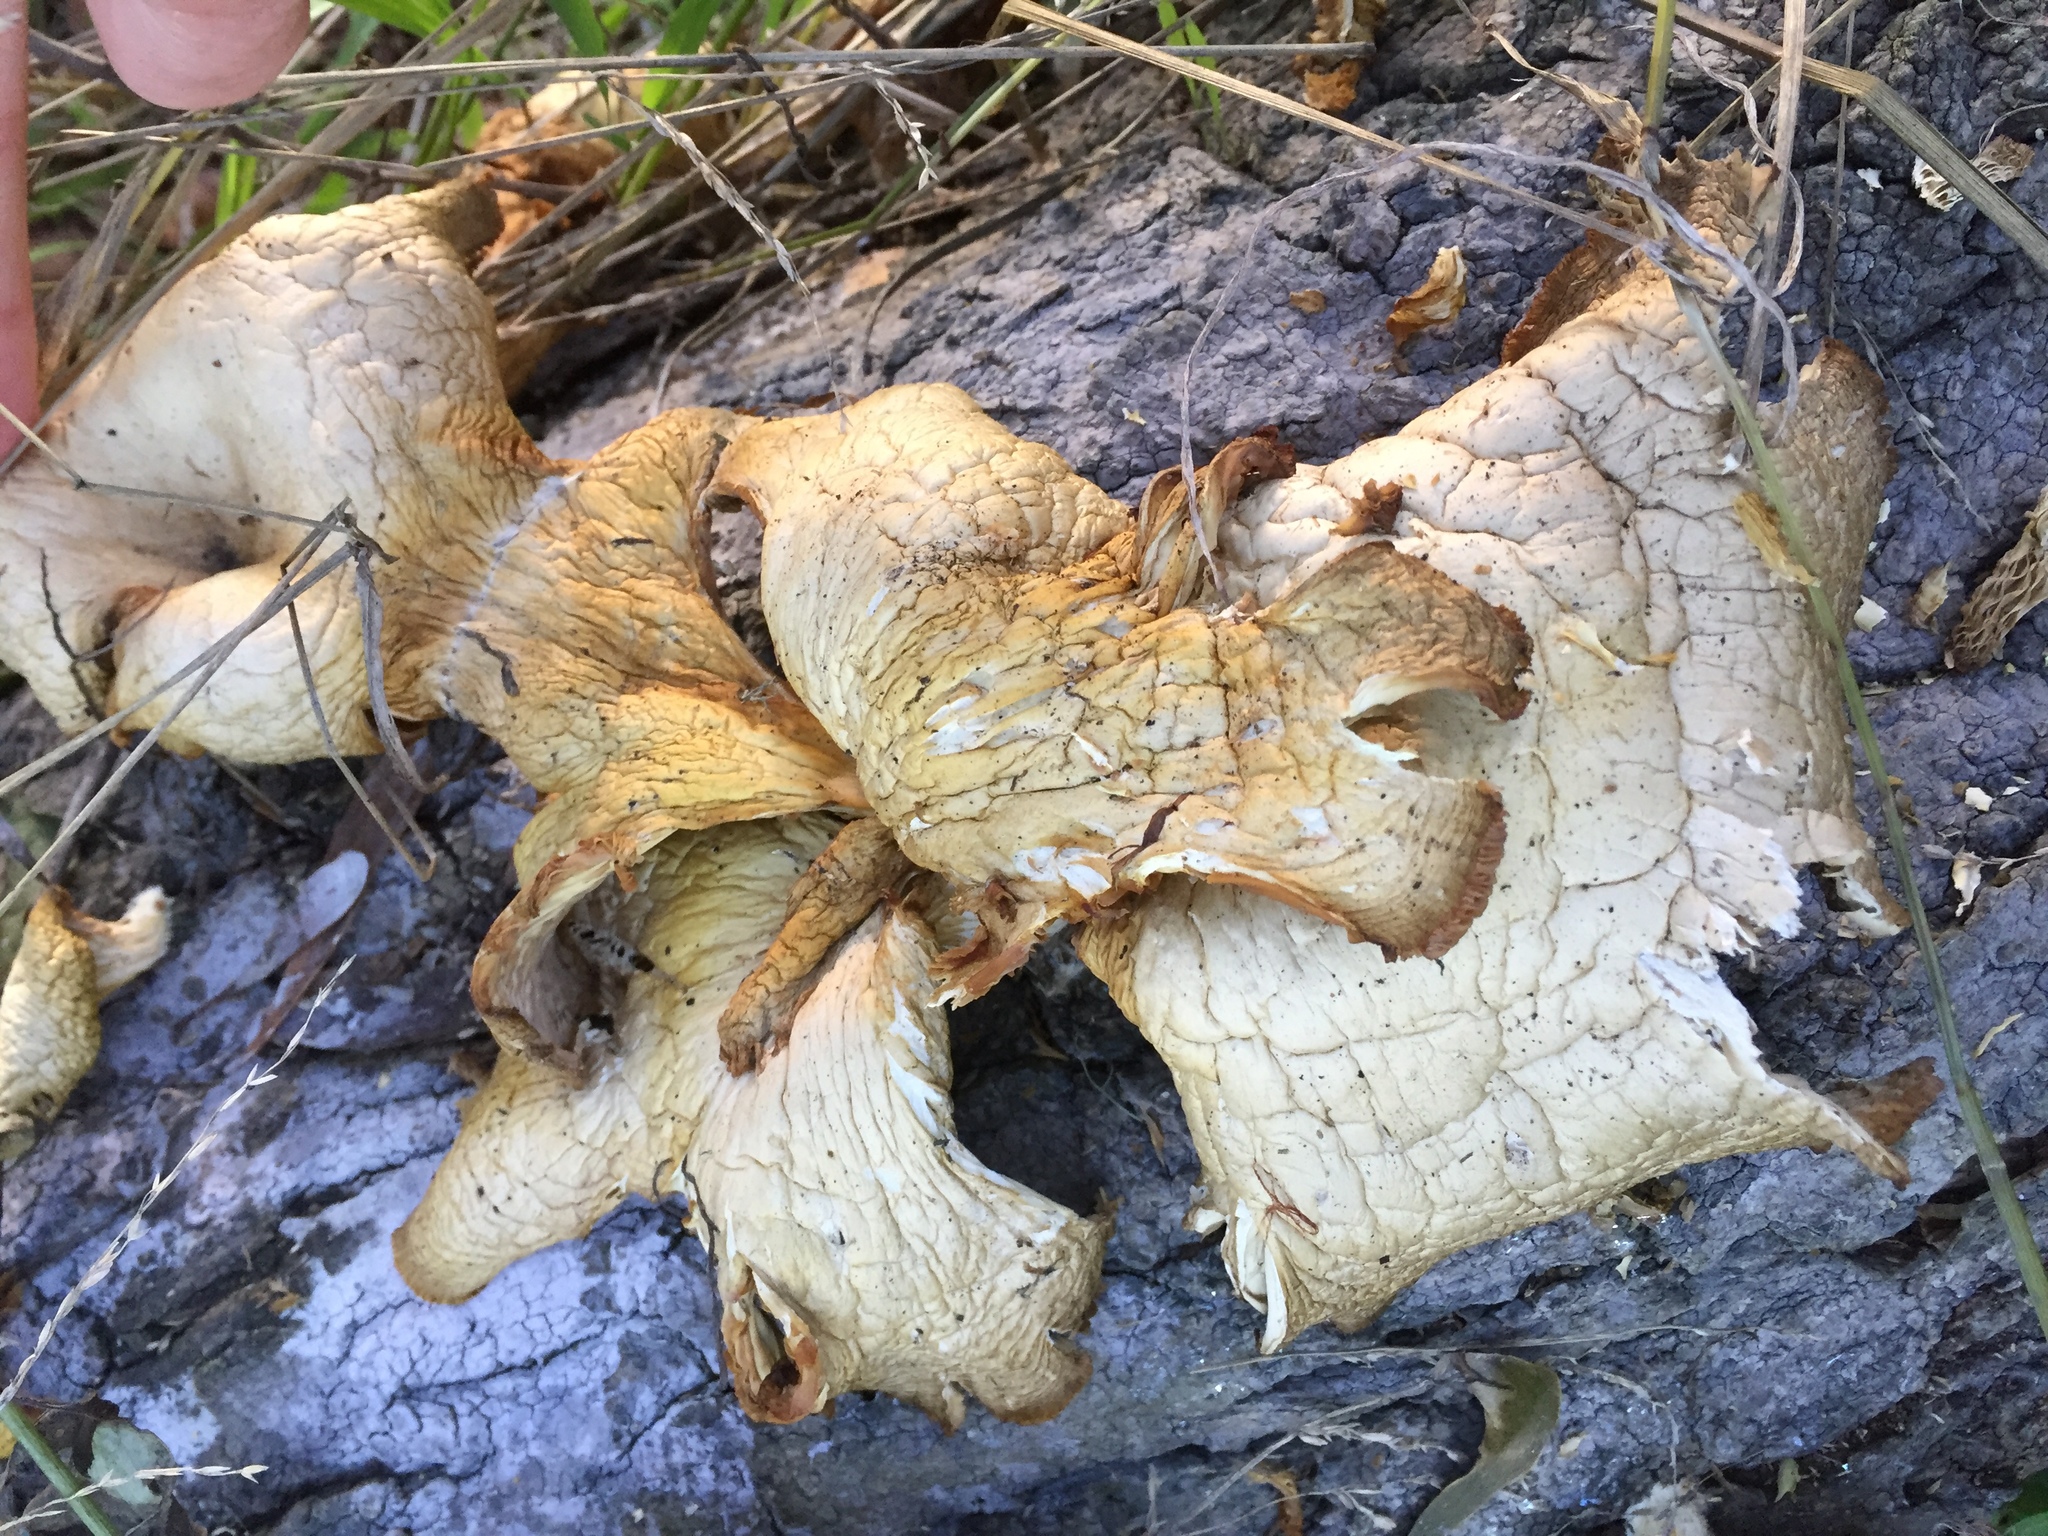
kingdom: Fungi
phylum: Basidiomycota
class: Agaricomycetes
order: Agaricales
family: Pleurotaceae
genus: Pleurotus
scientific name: Pleurotus ostreatus
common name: Oyster mushroom
